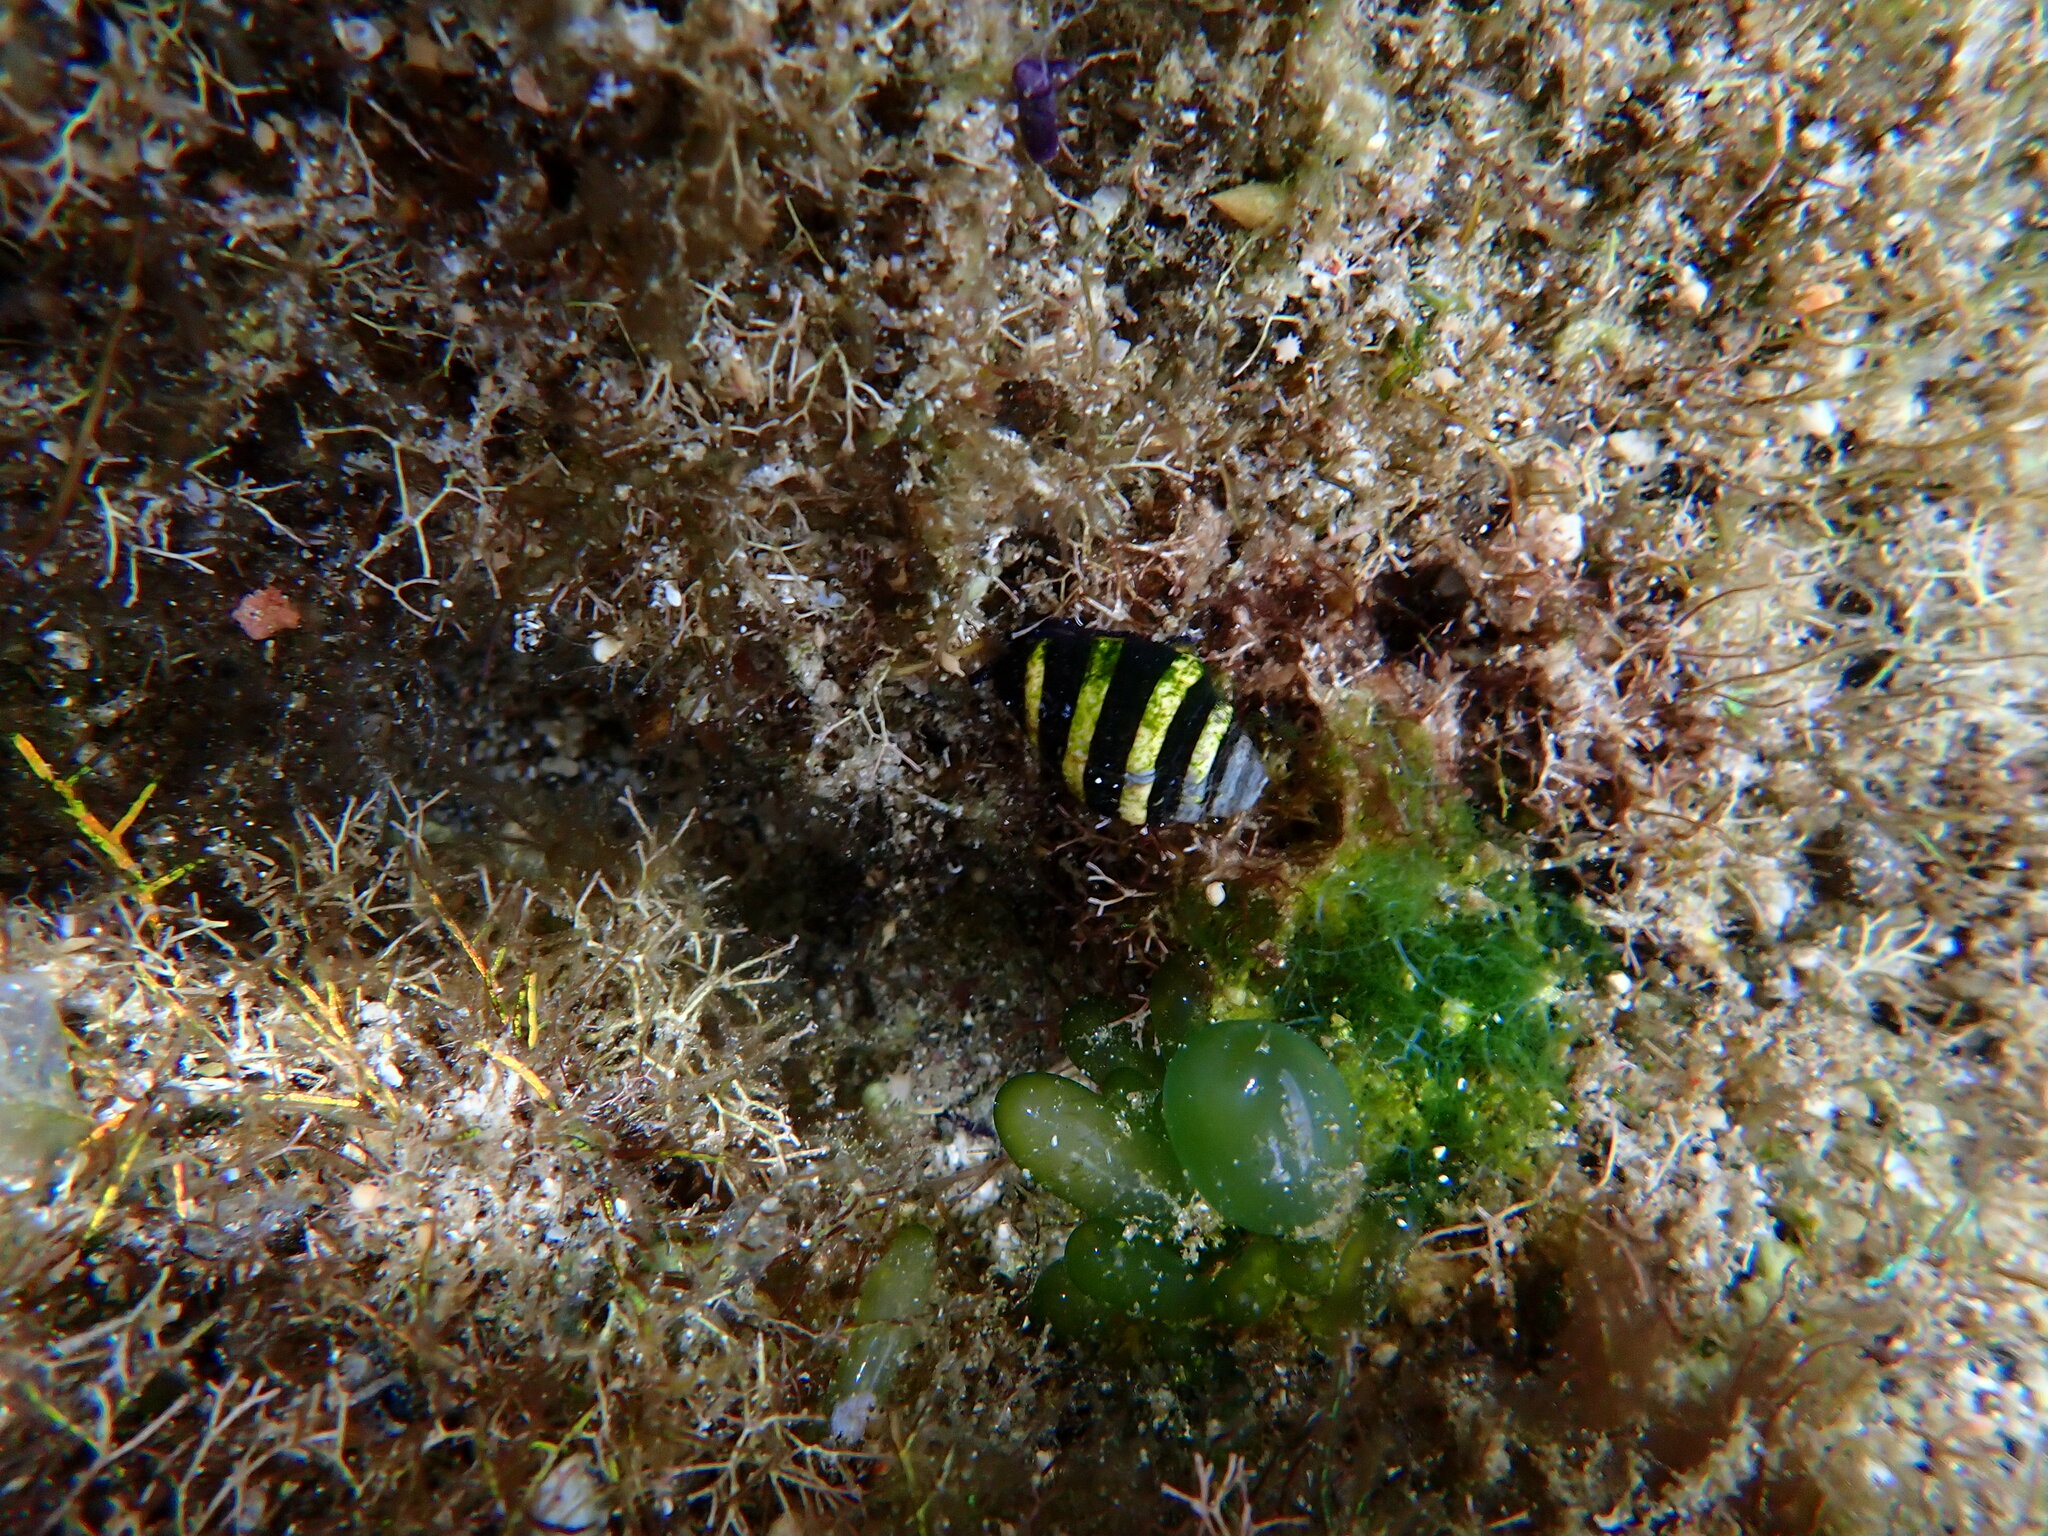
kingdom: Animalia
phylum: Mollusca
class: Gastropoda
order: Neogastropoda
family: Pisaniidae
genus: Engina
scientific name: Engina mendicaria
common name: Bumble bee snail
